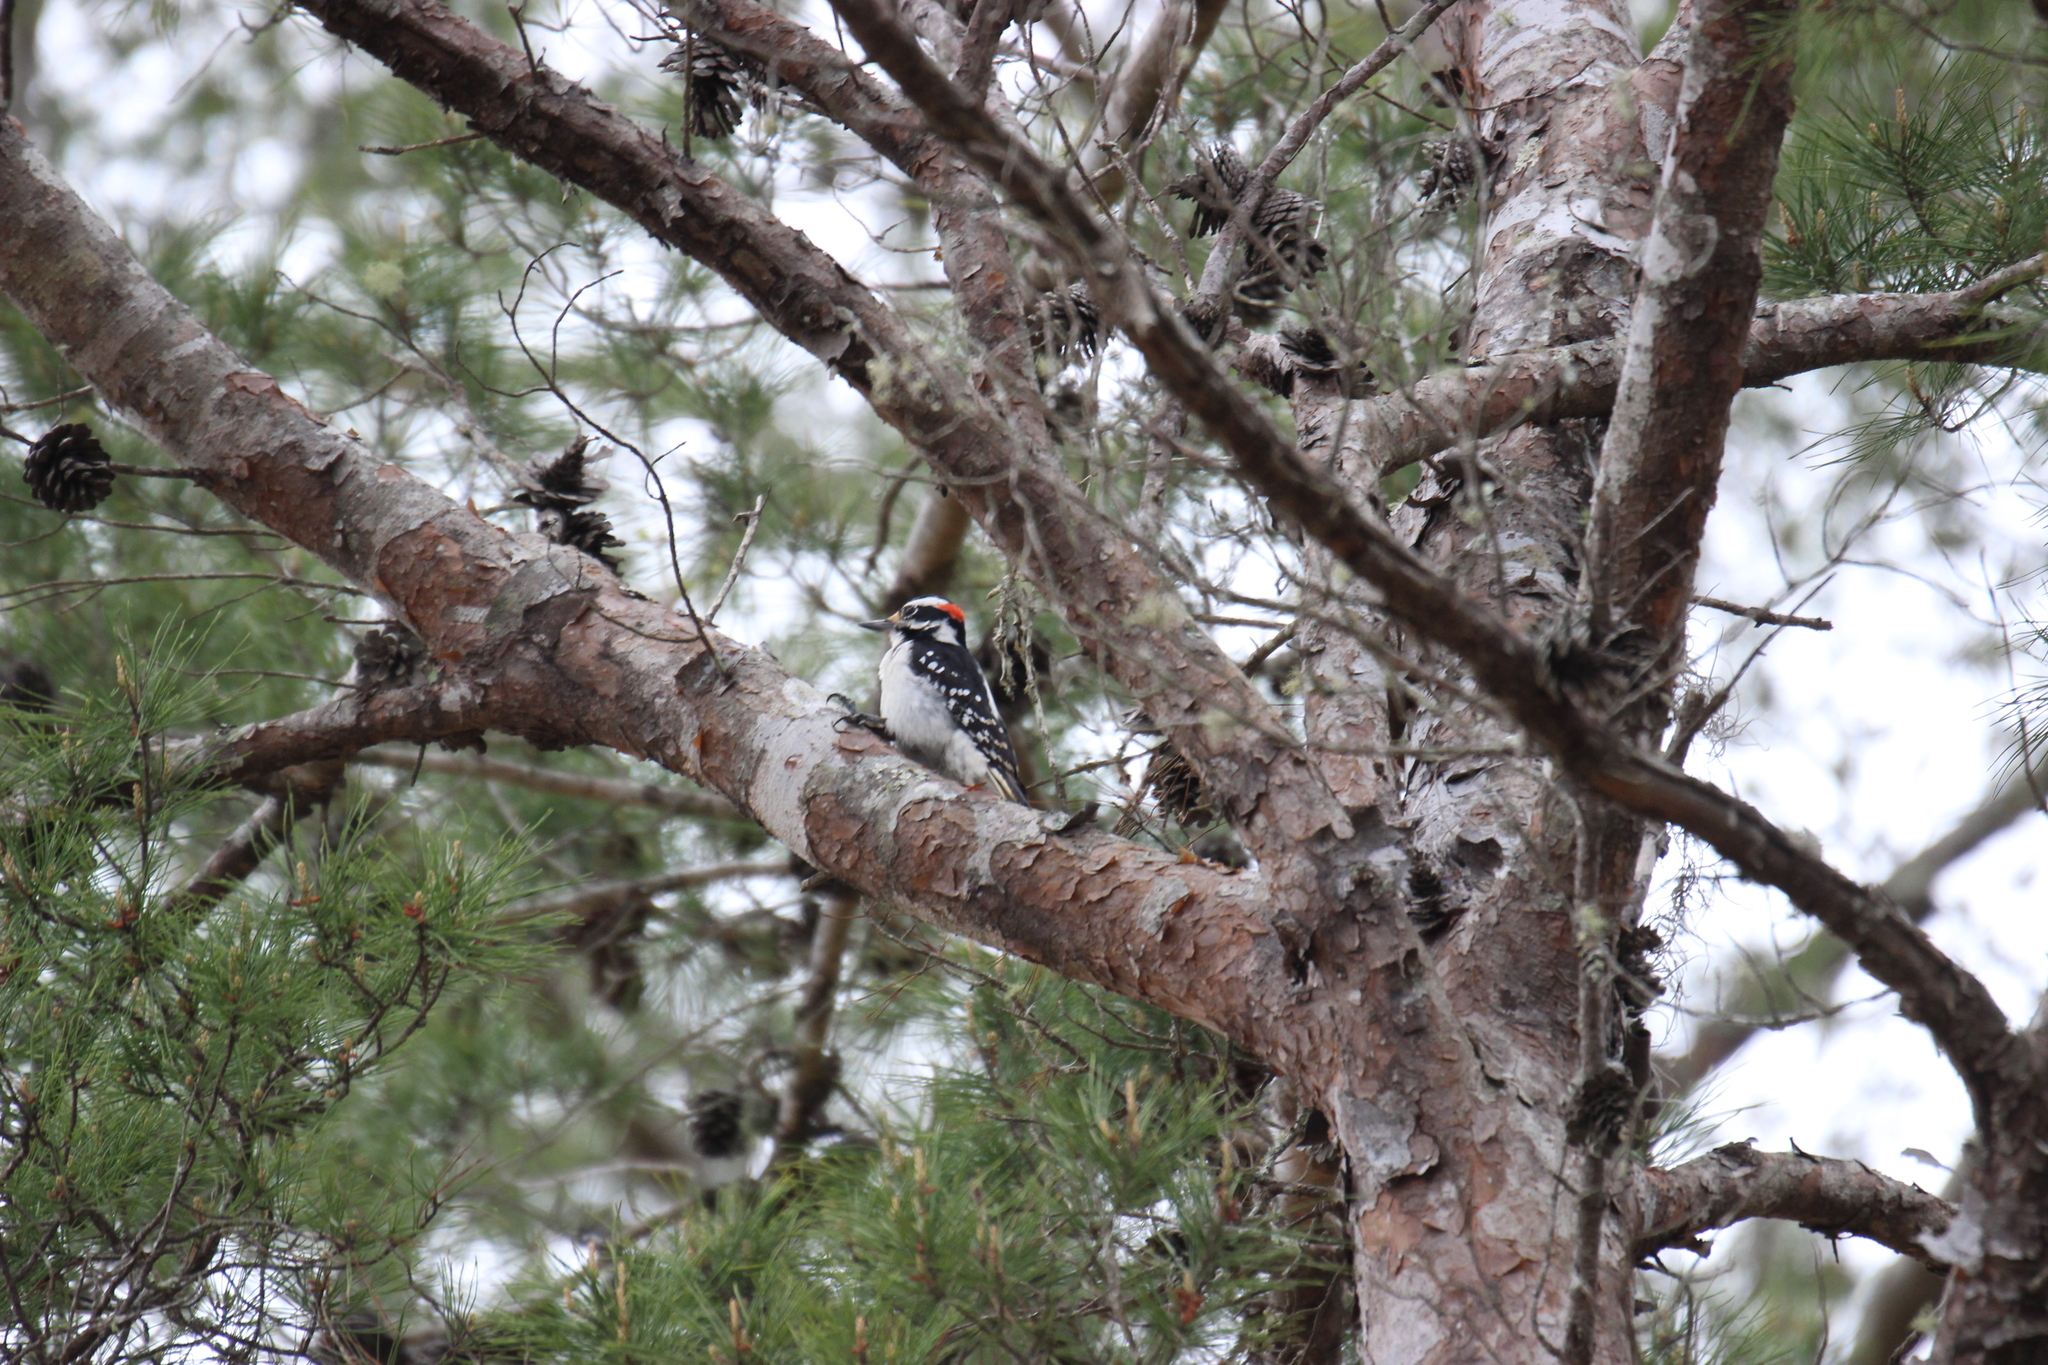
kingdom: Animalia
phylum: Chordata
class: Aves
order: Piciformes
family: Picidae
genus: Leuconotopicus
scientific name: Leuconotopicus villosus
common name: Hairy woodpecker
